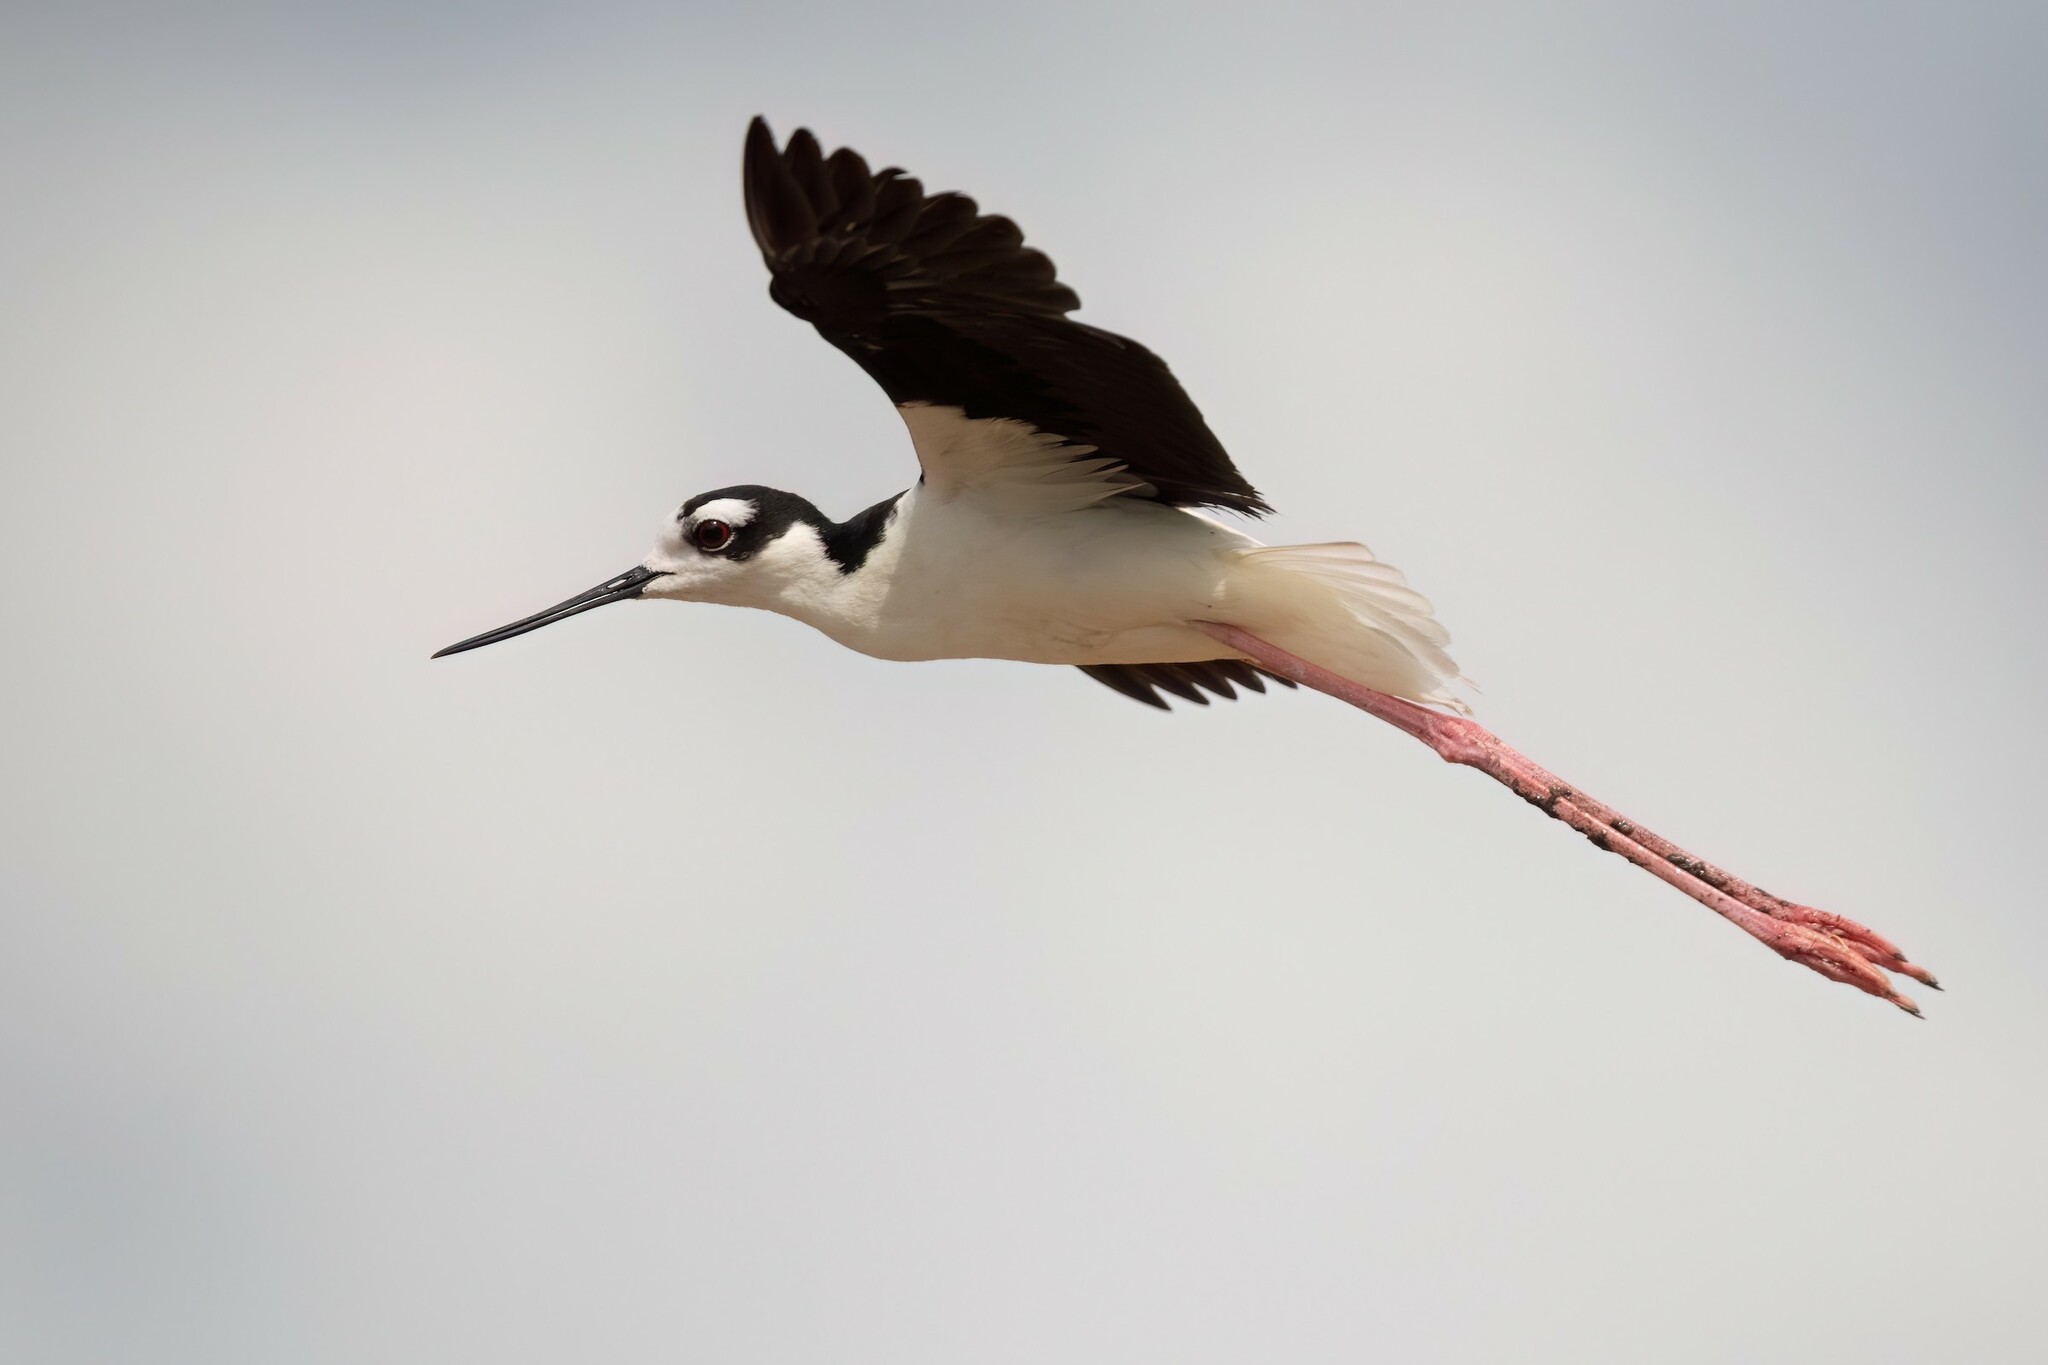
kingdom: Animalia
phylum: Chordata
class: Aves
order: Charadriiformes
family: Recurvirostridae
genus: Himantopus
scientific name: Himantopus mexicanus
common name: Black-necked stilt
